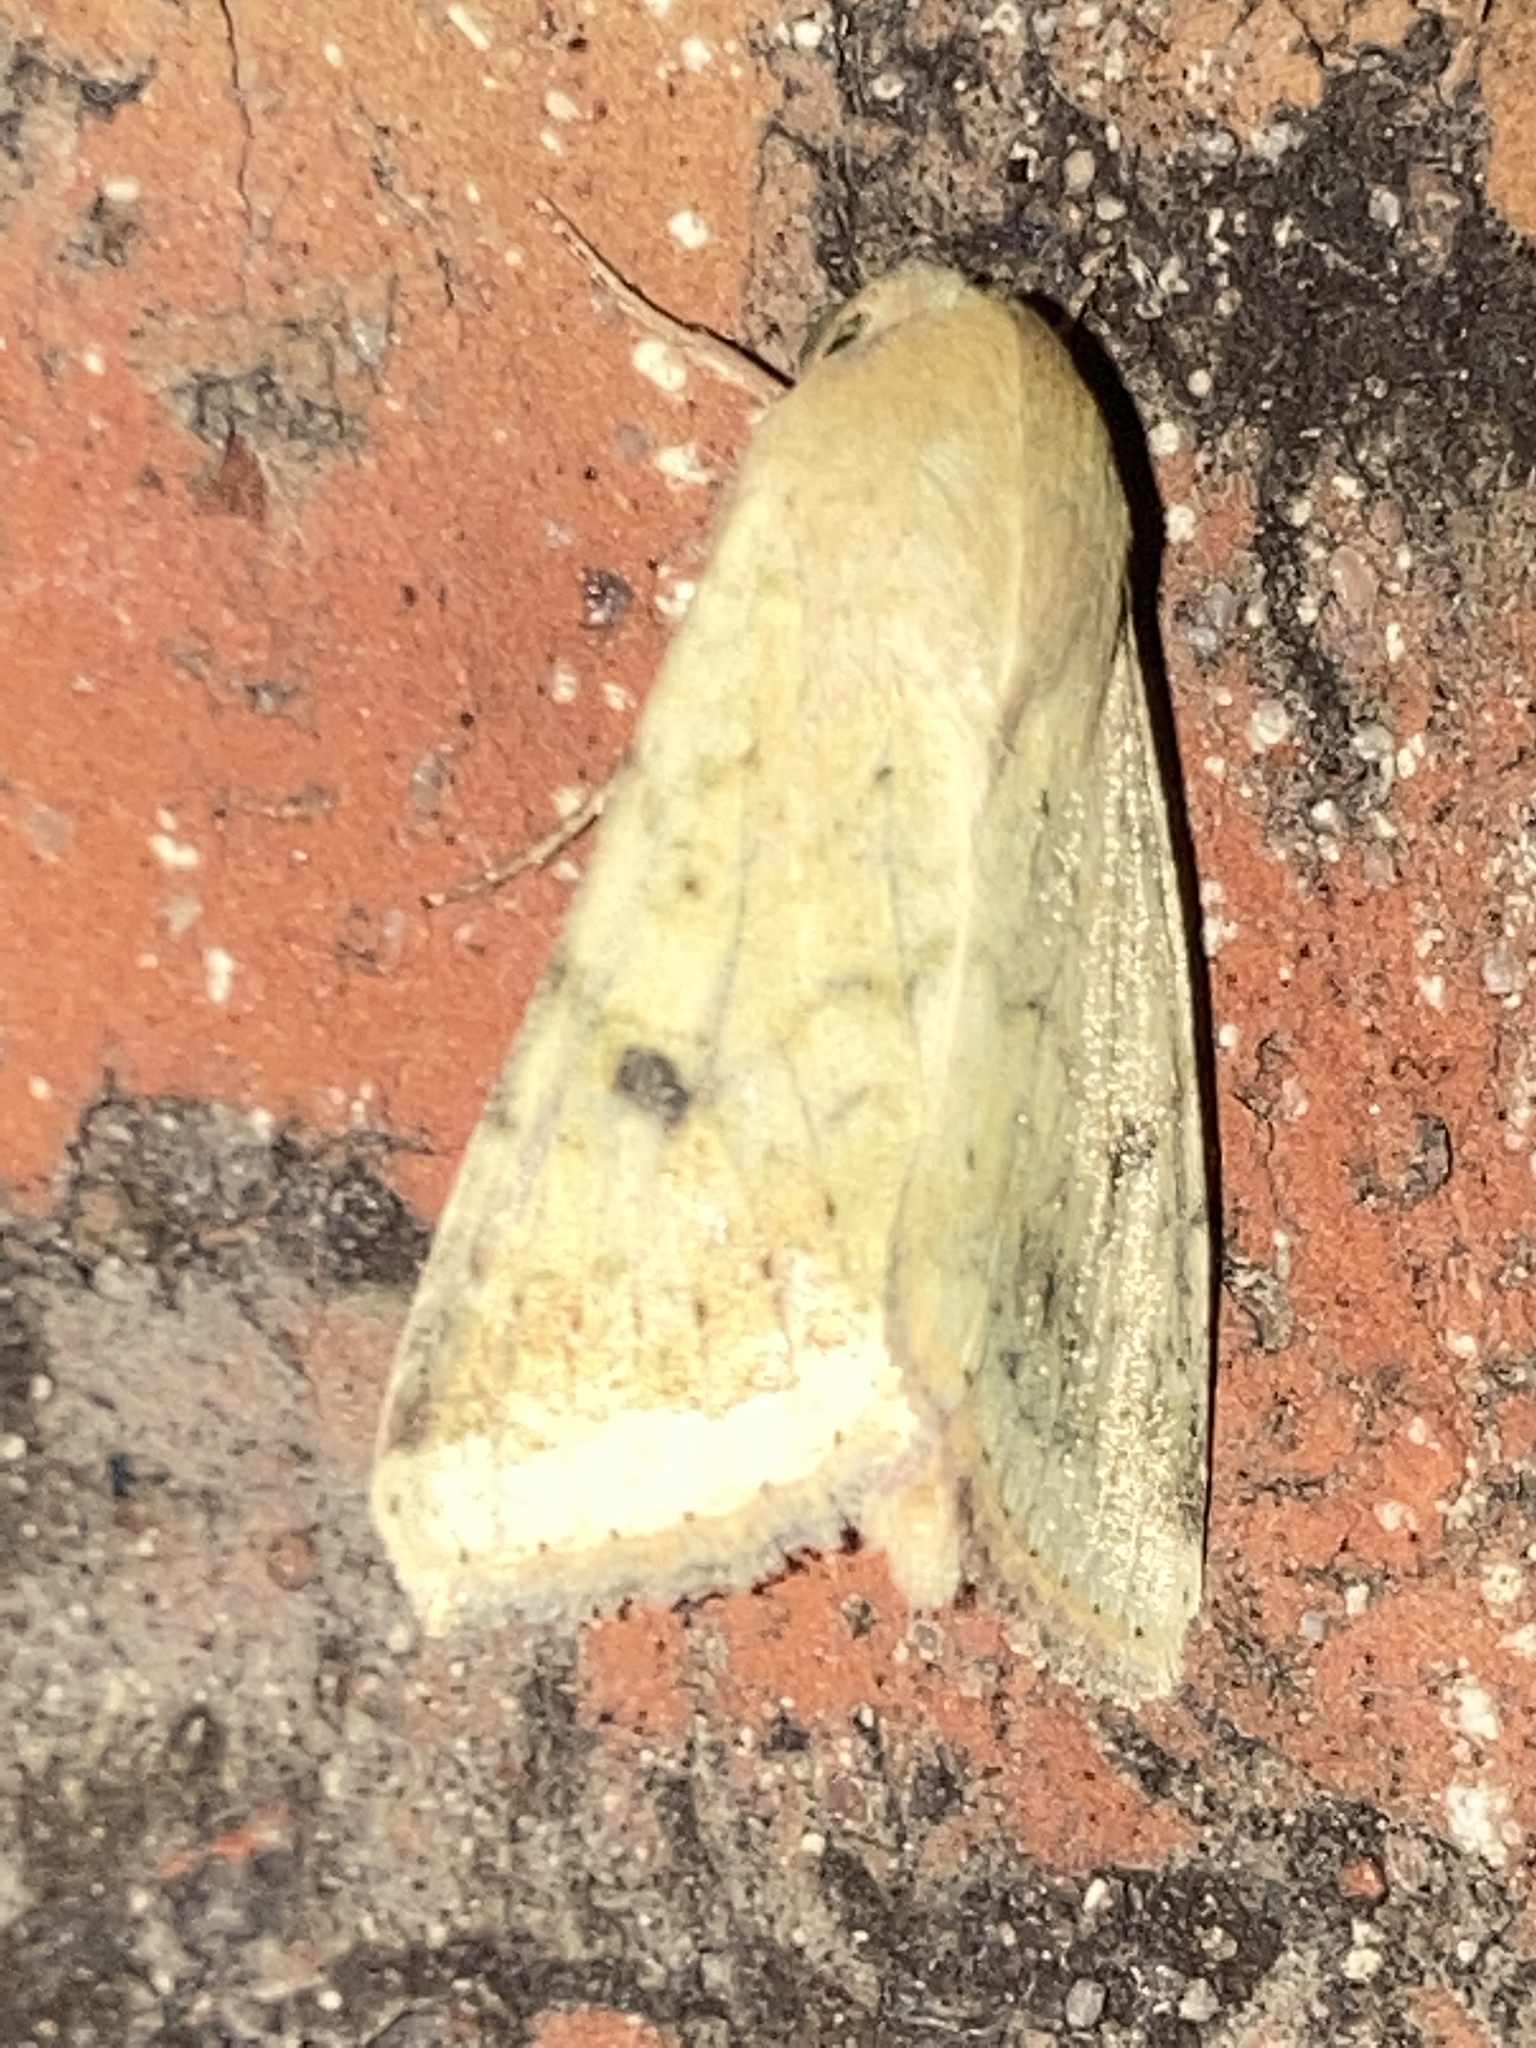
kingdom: Animalia
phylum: Arthropoda
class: Insecta
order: Lepidoptera
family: Noctuidae
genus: Helicoverpa
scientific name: Helicoverpa zea
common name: Bollworm
